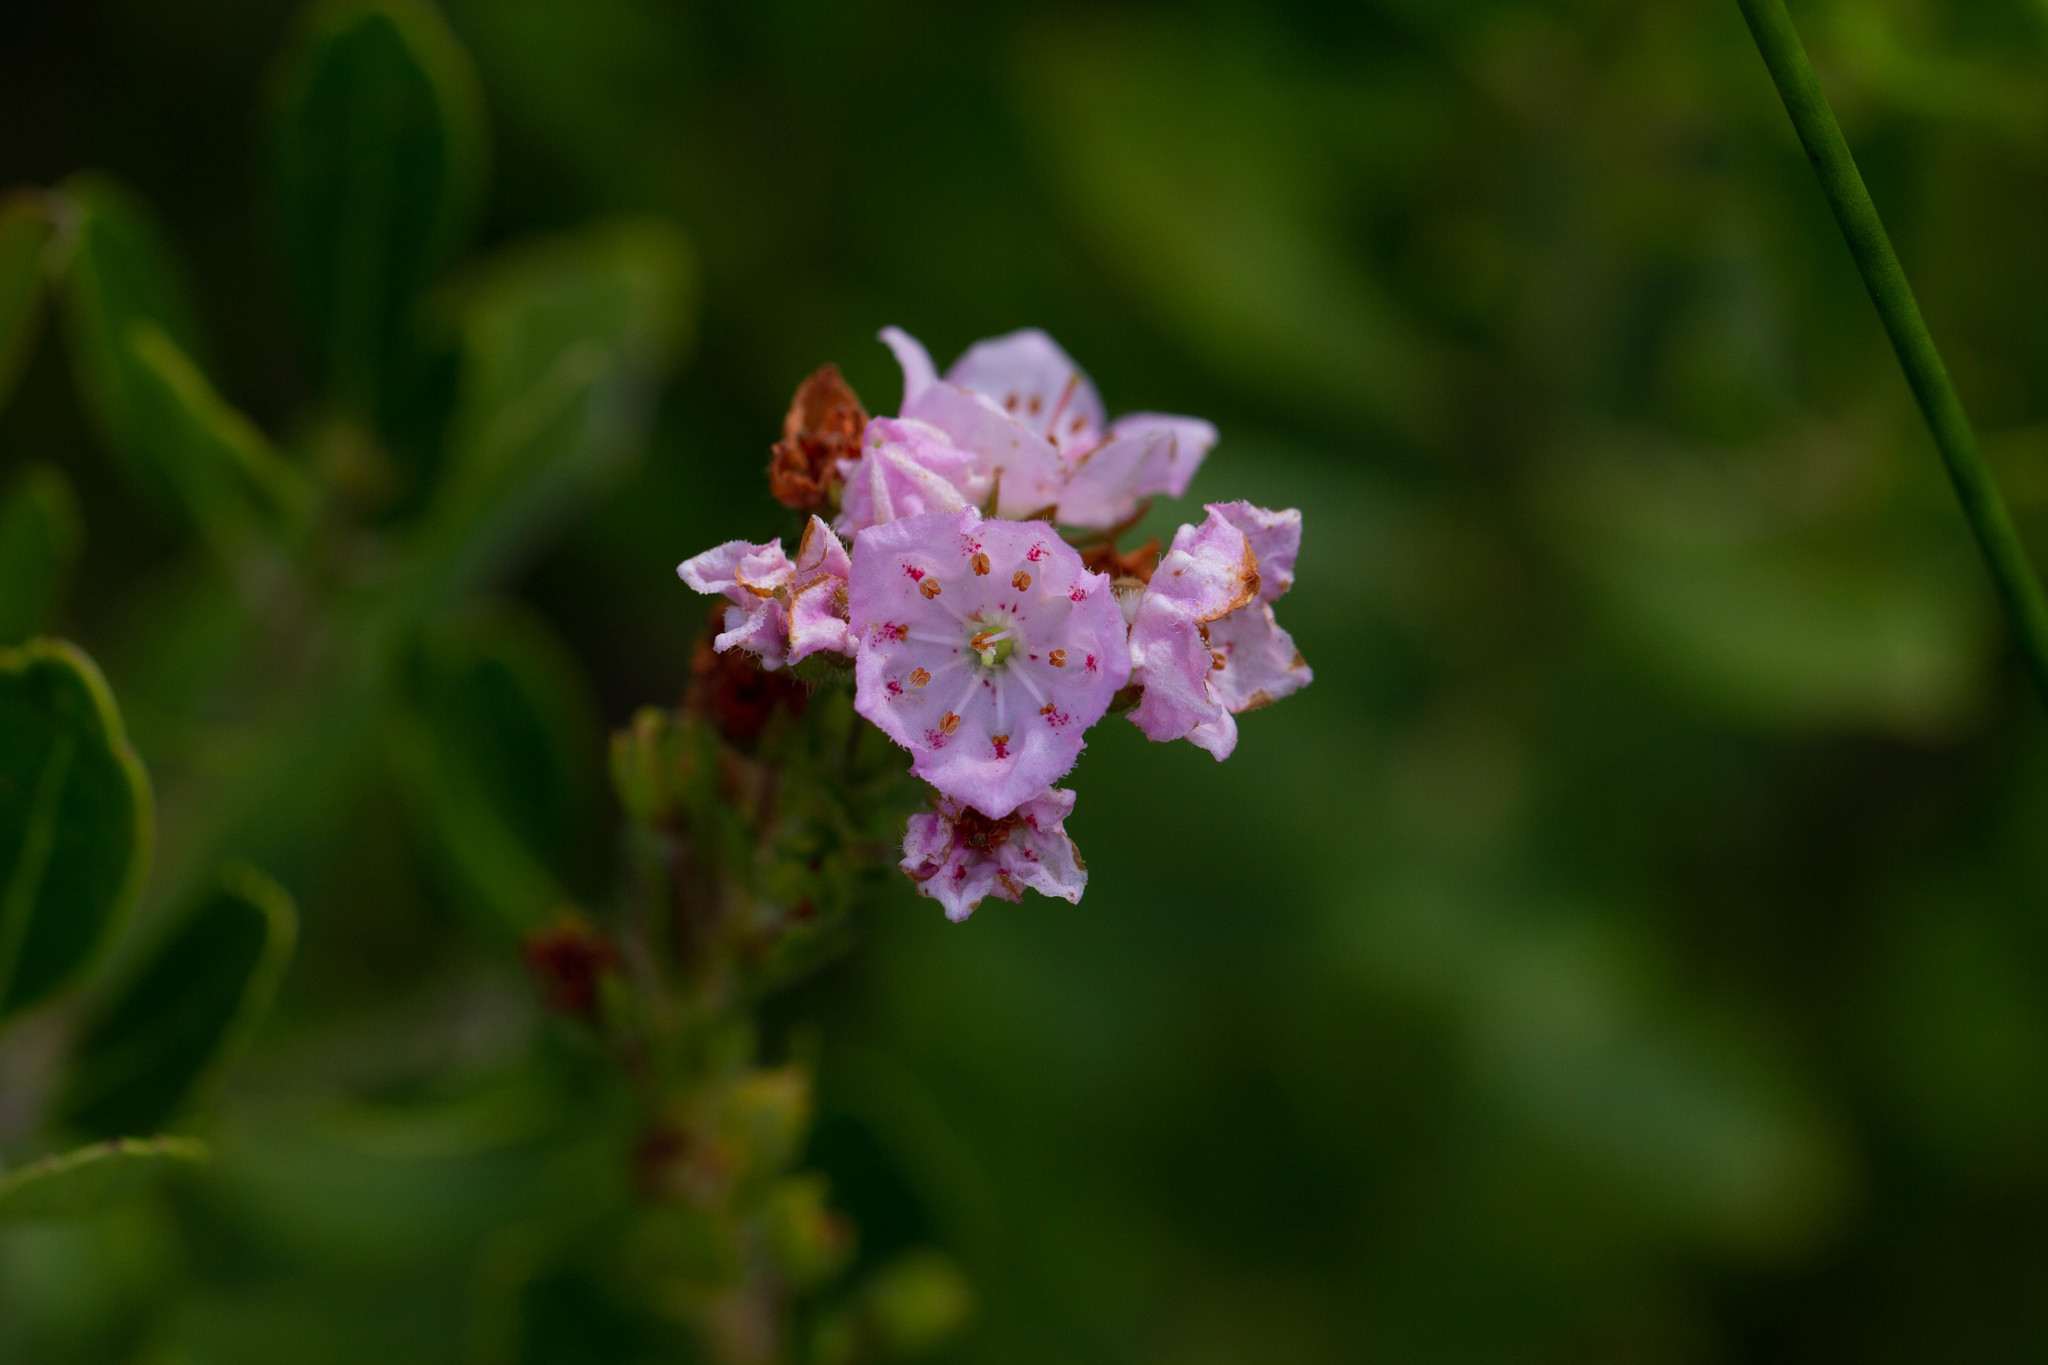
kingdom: Plantae
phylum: Tracheophyta
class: Magnoliopsida
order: Ericales
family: Ericaceae
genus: Kalmia
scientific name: Kalmia hirsuta
